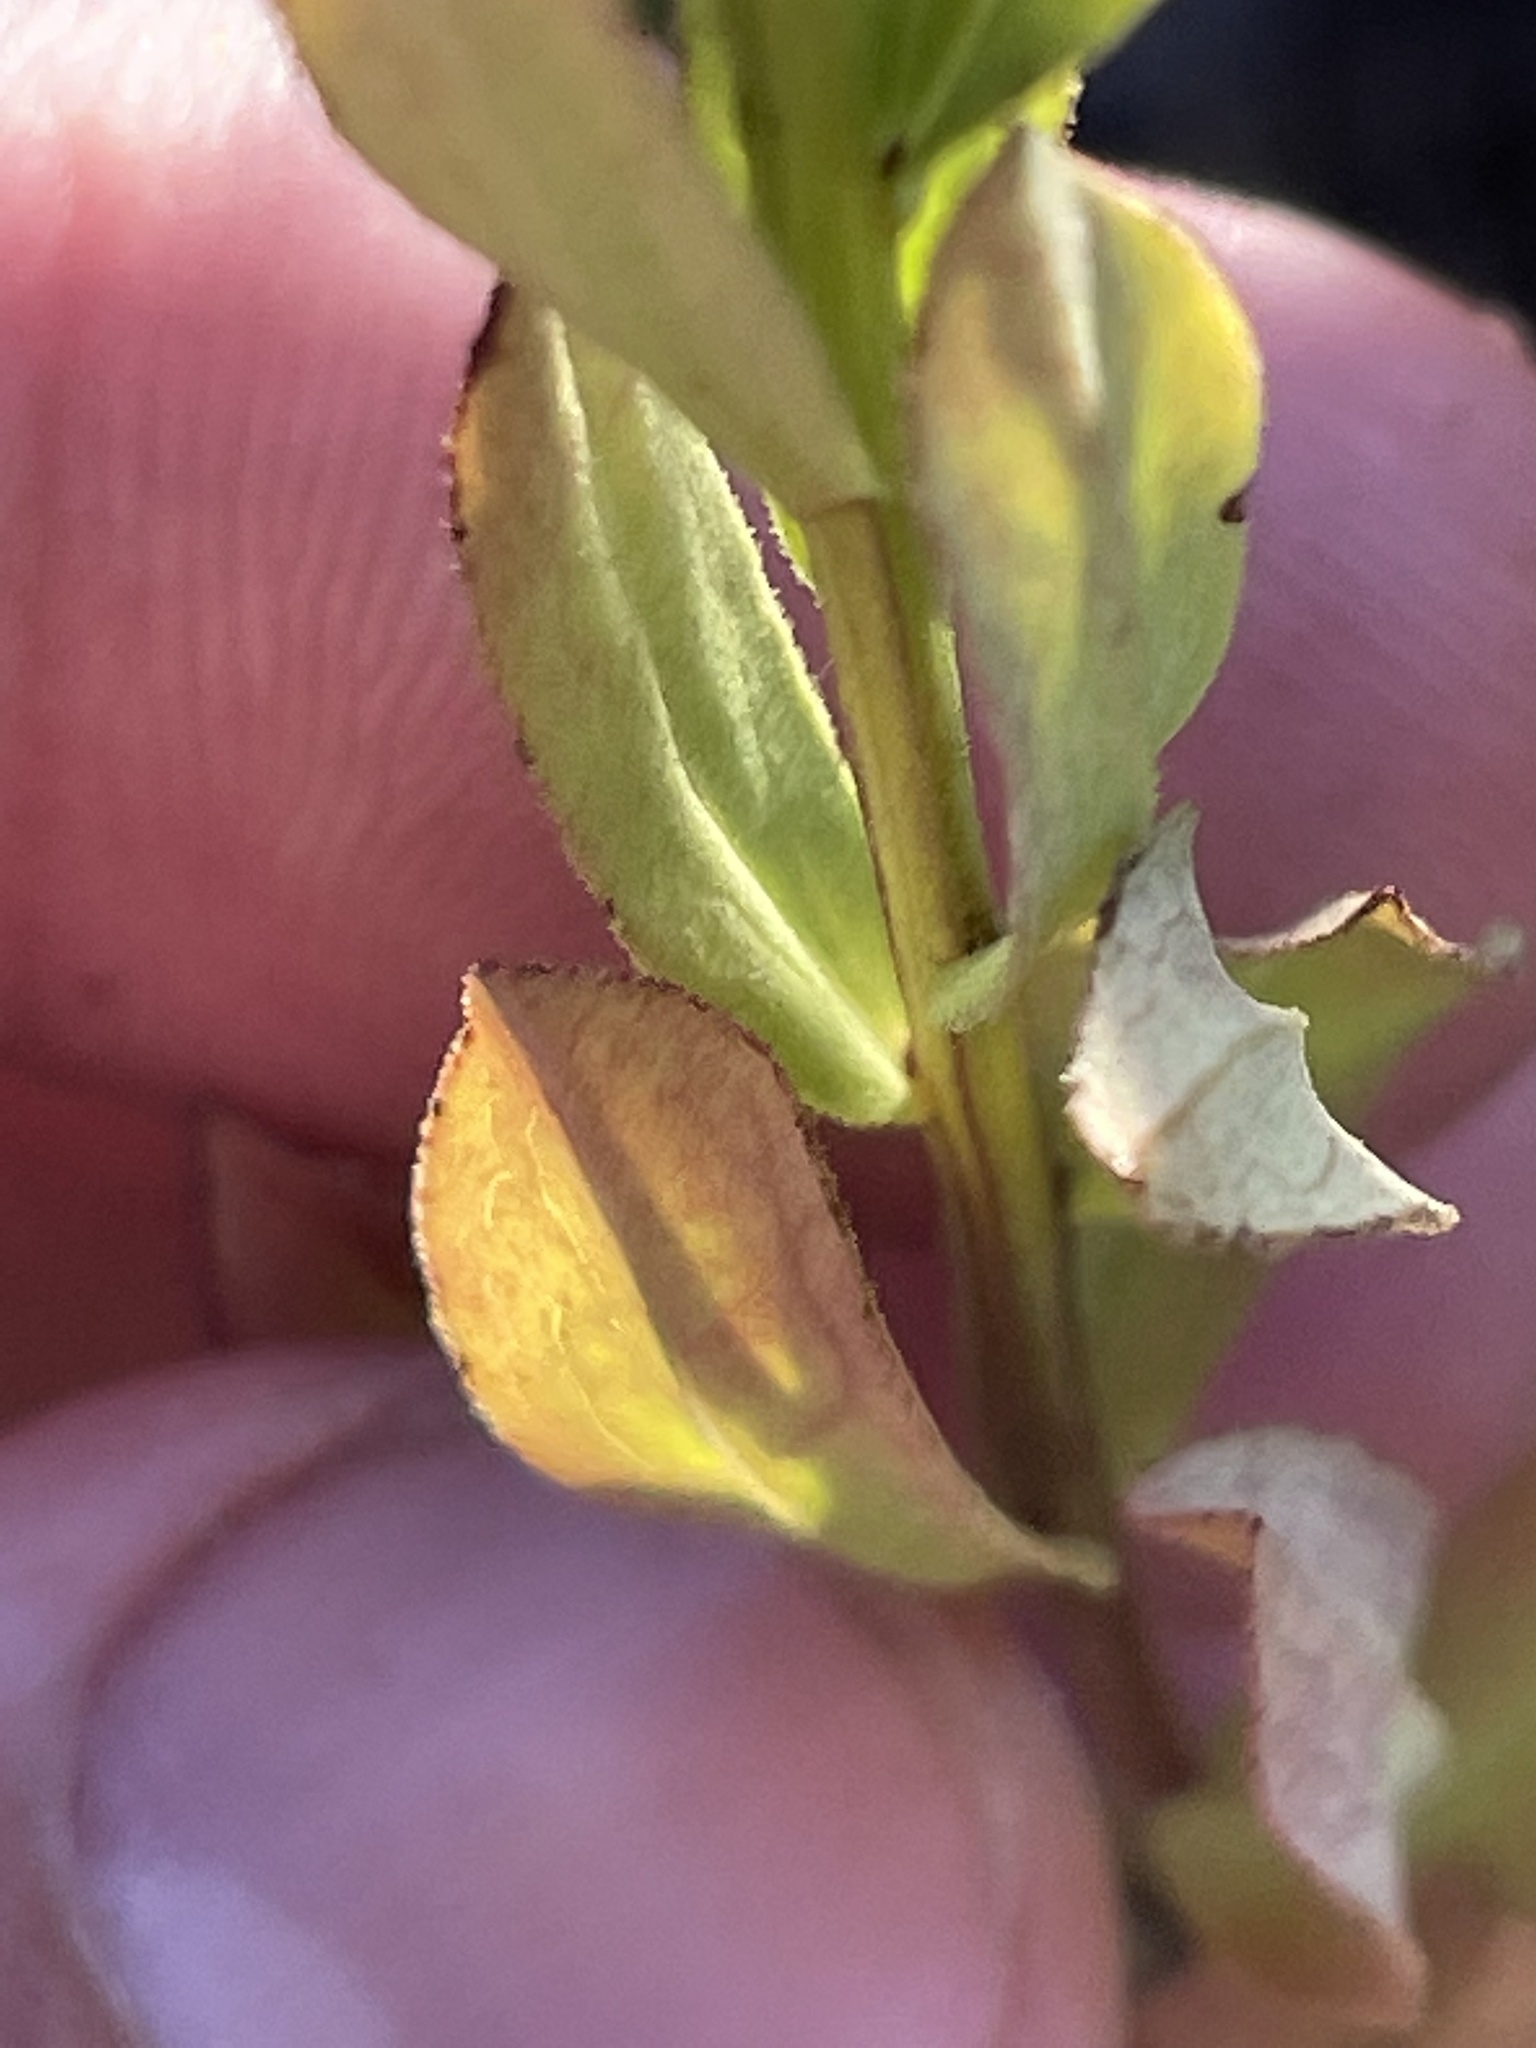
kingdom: Plantae
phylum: Tracheophyta
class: Magnoliopsida
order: Asterales
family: Asteraceae
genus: Sericocarpus
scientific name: Sericocarpus rigidus
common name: Columbia white-top aster
